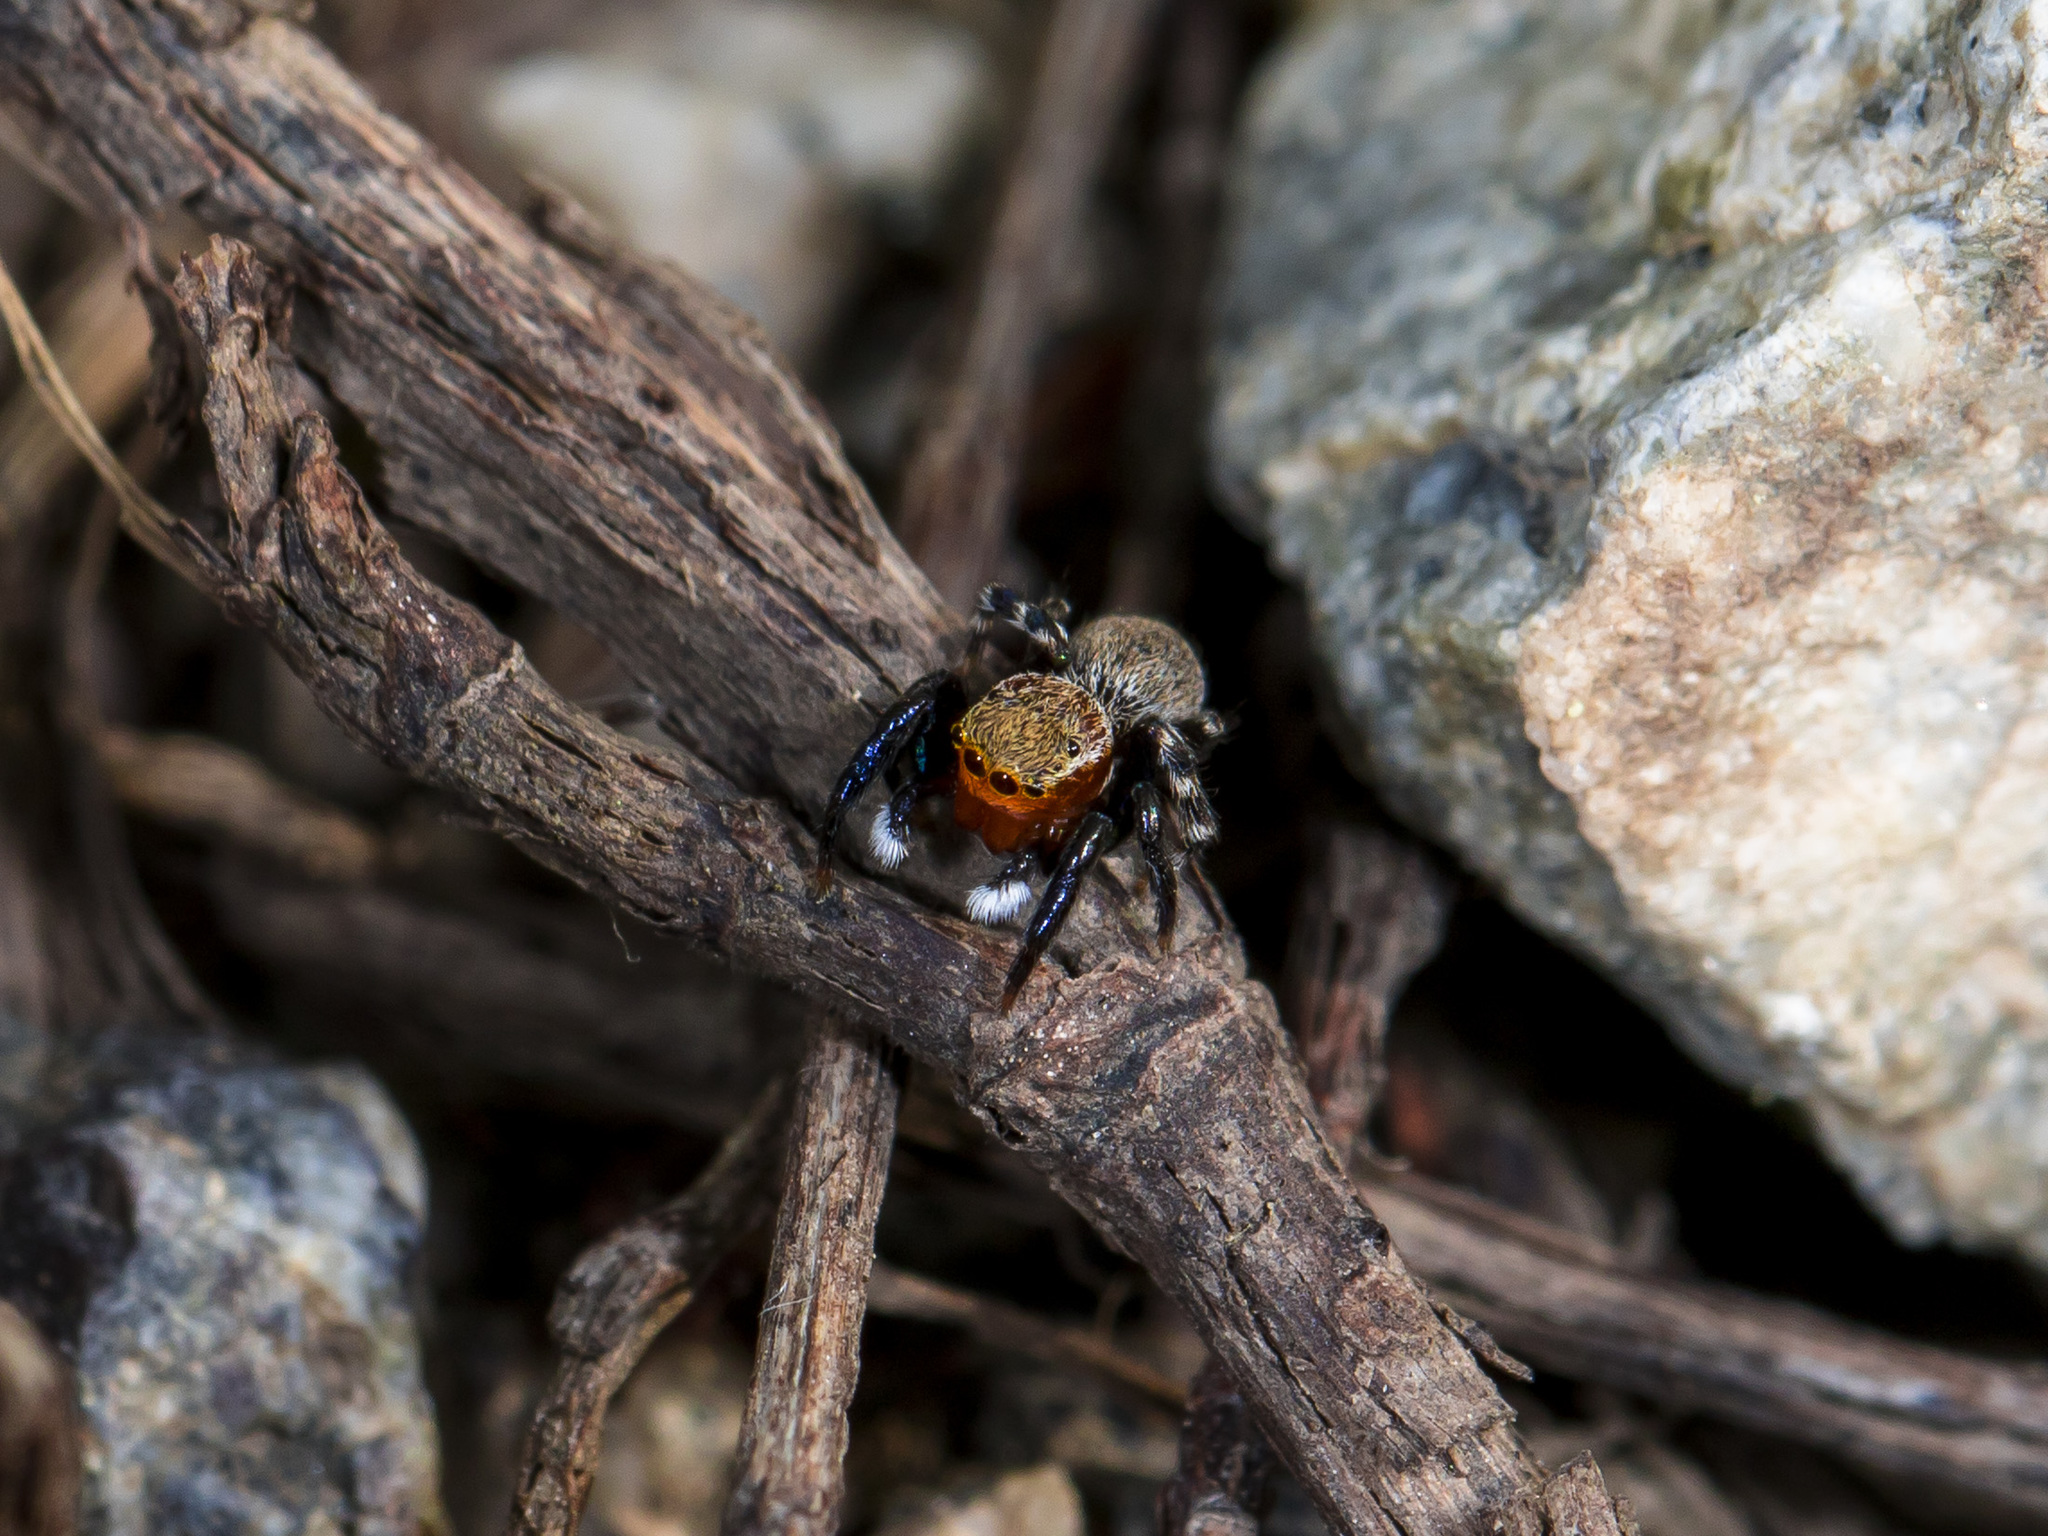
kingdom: Animalia
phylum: Arthropoda
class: Arachnida
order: Araneae
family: Salticidae
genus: Talavera
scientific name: Talavera petrensis
